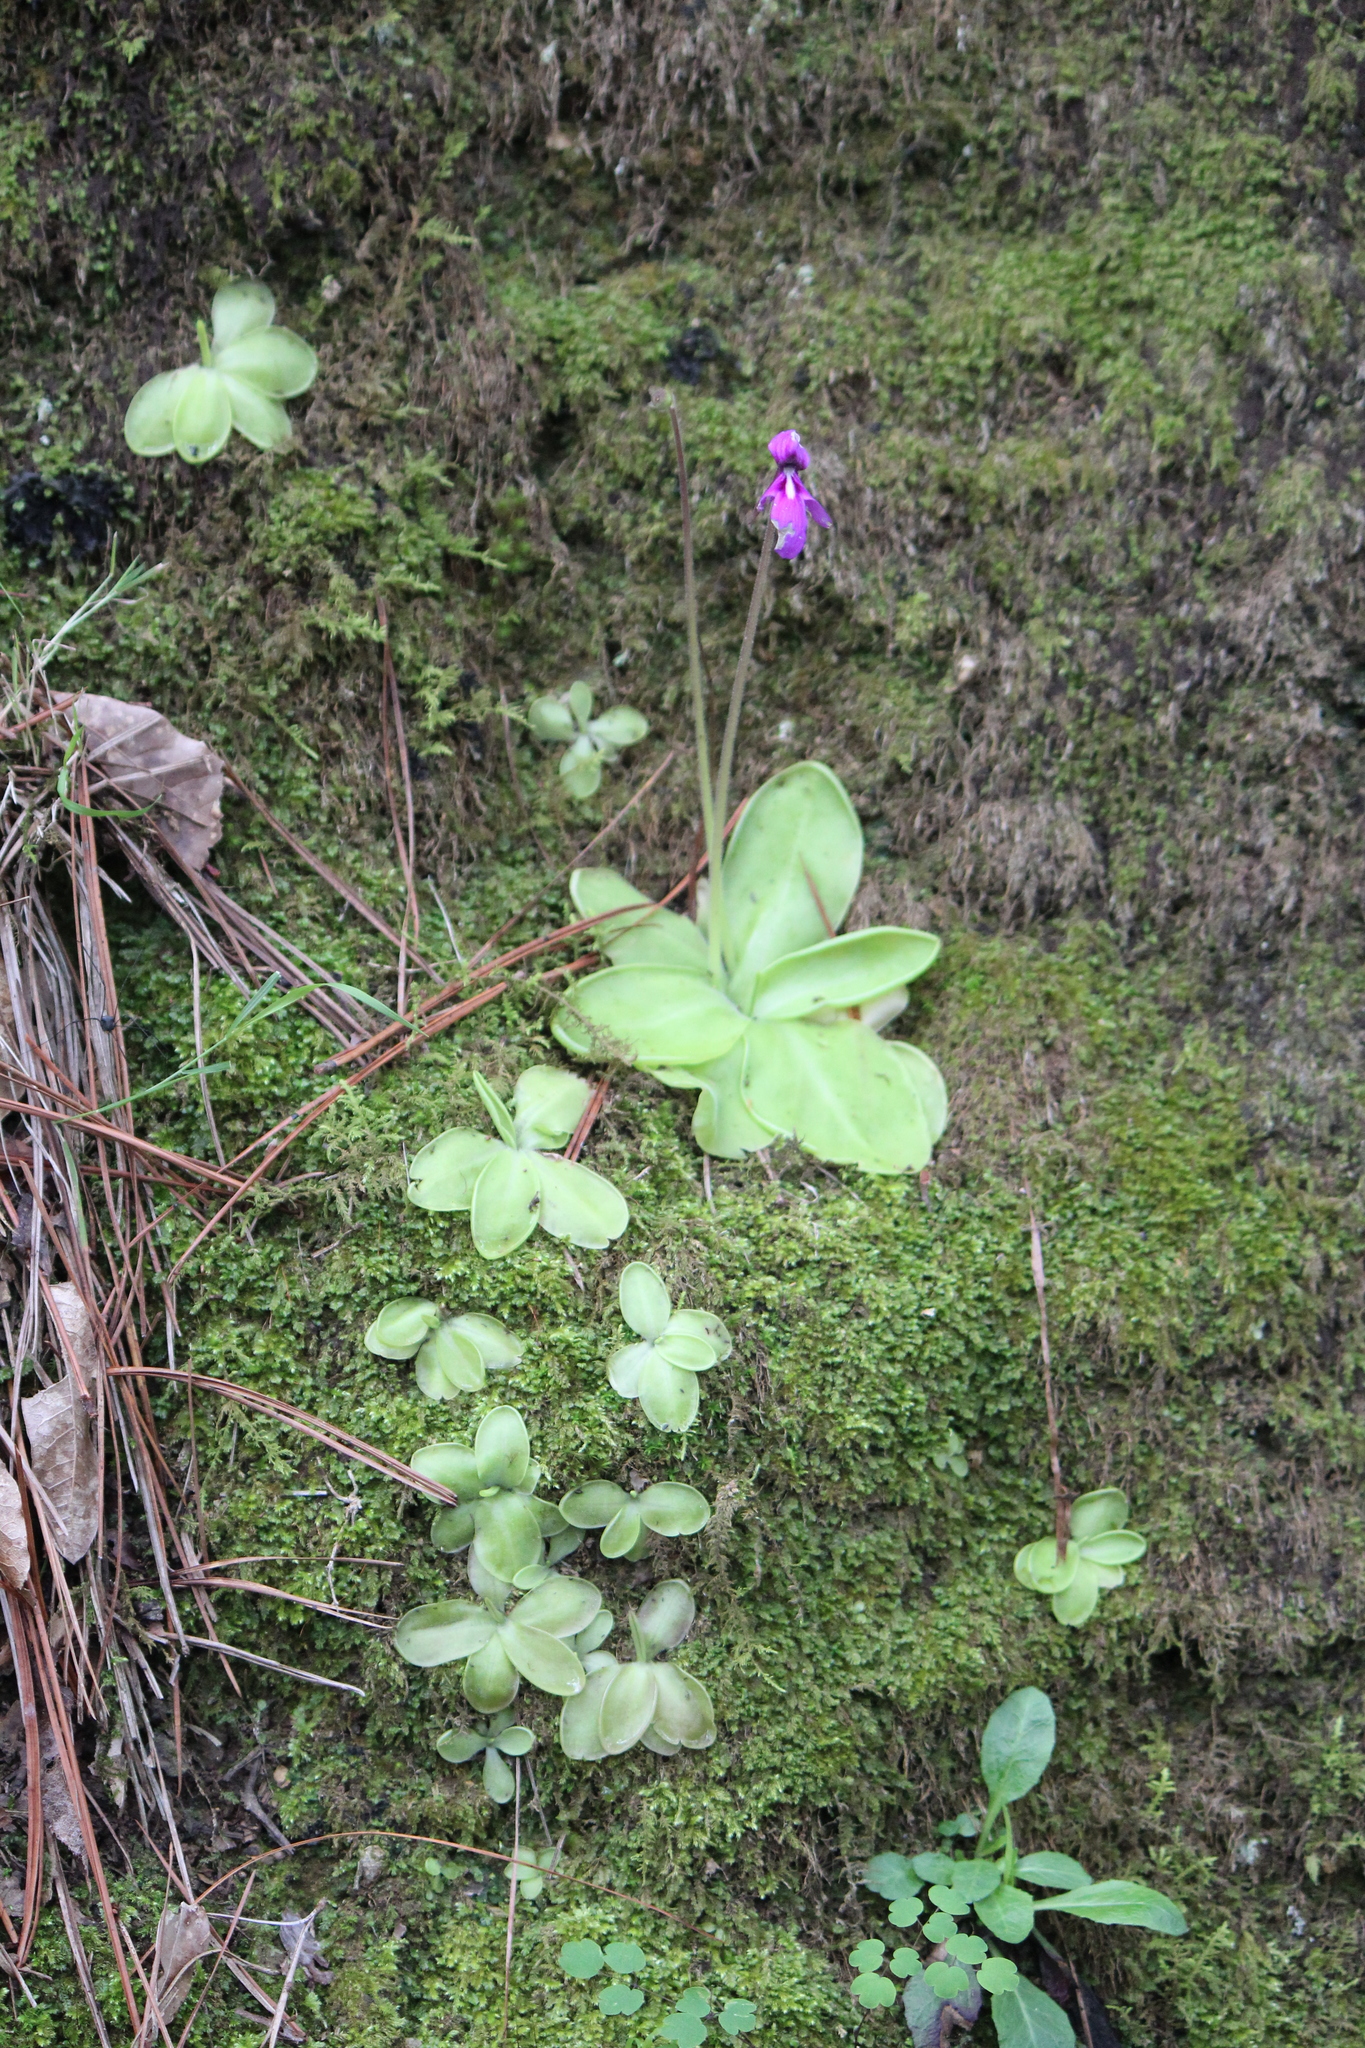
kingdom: Plantae
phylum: Tracheophyta
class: Magnoliopsida
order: Lamiales
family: Lentibulariaceae
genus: Pinguicula
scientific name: Pinguicula moranensis
